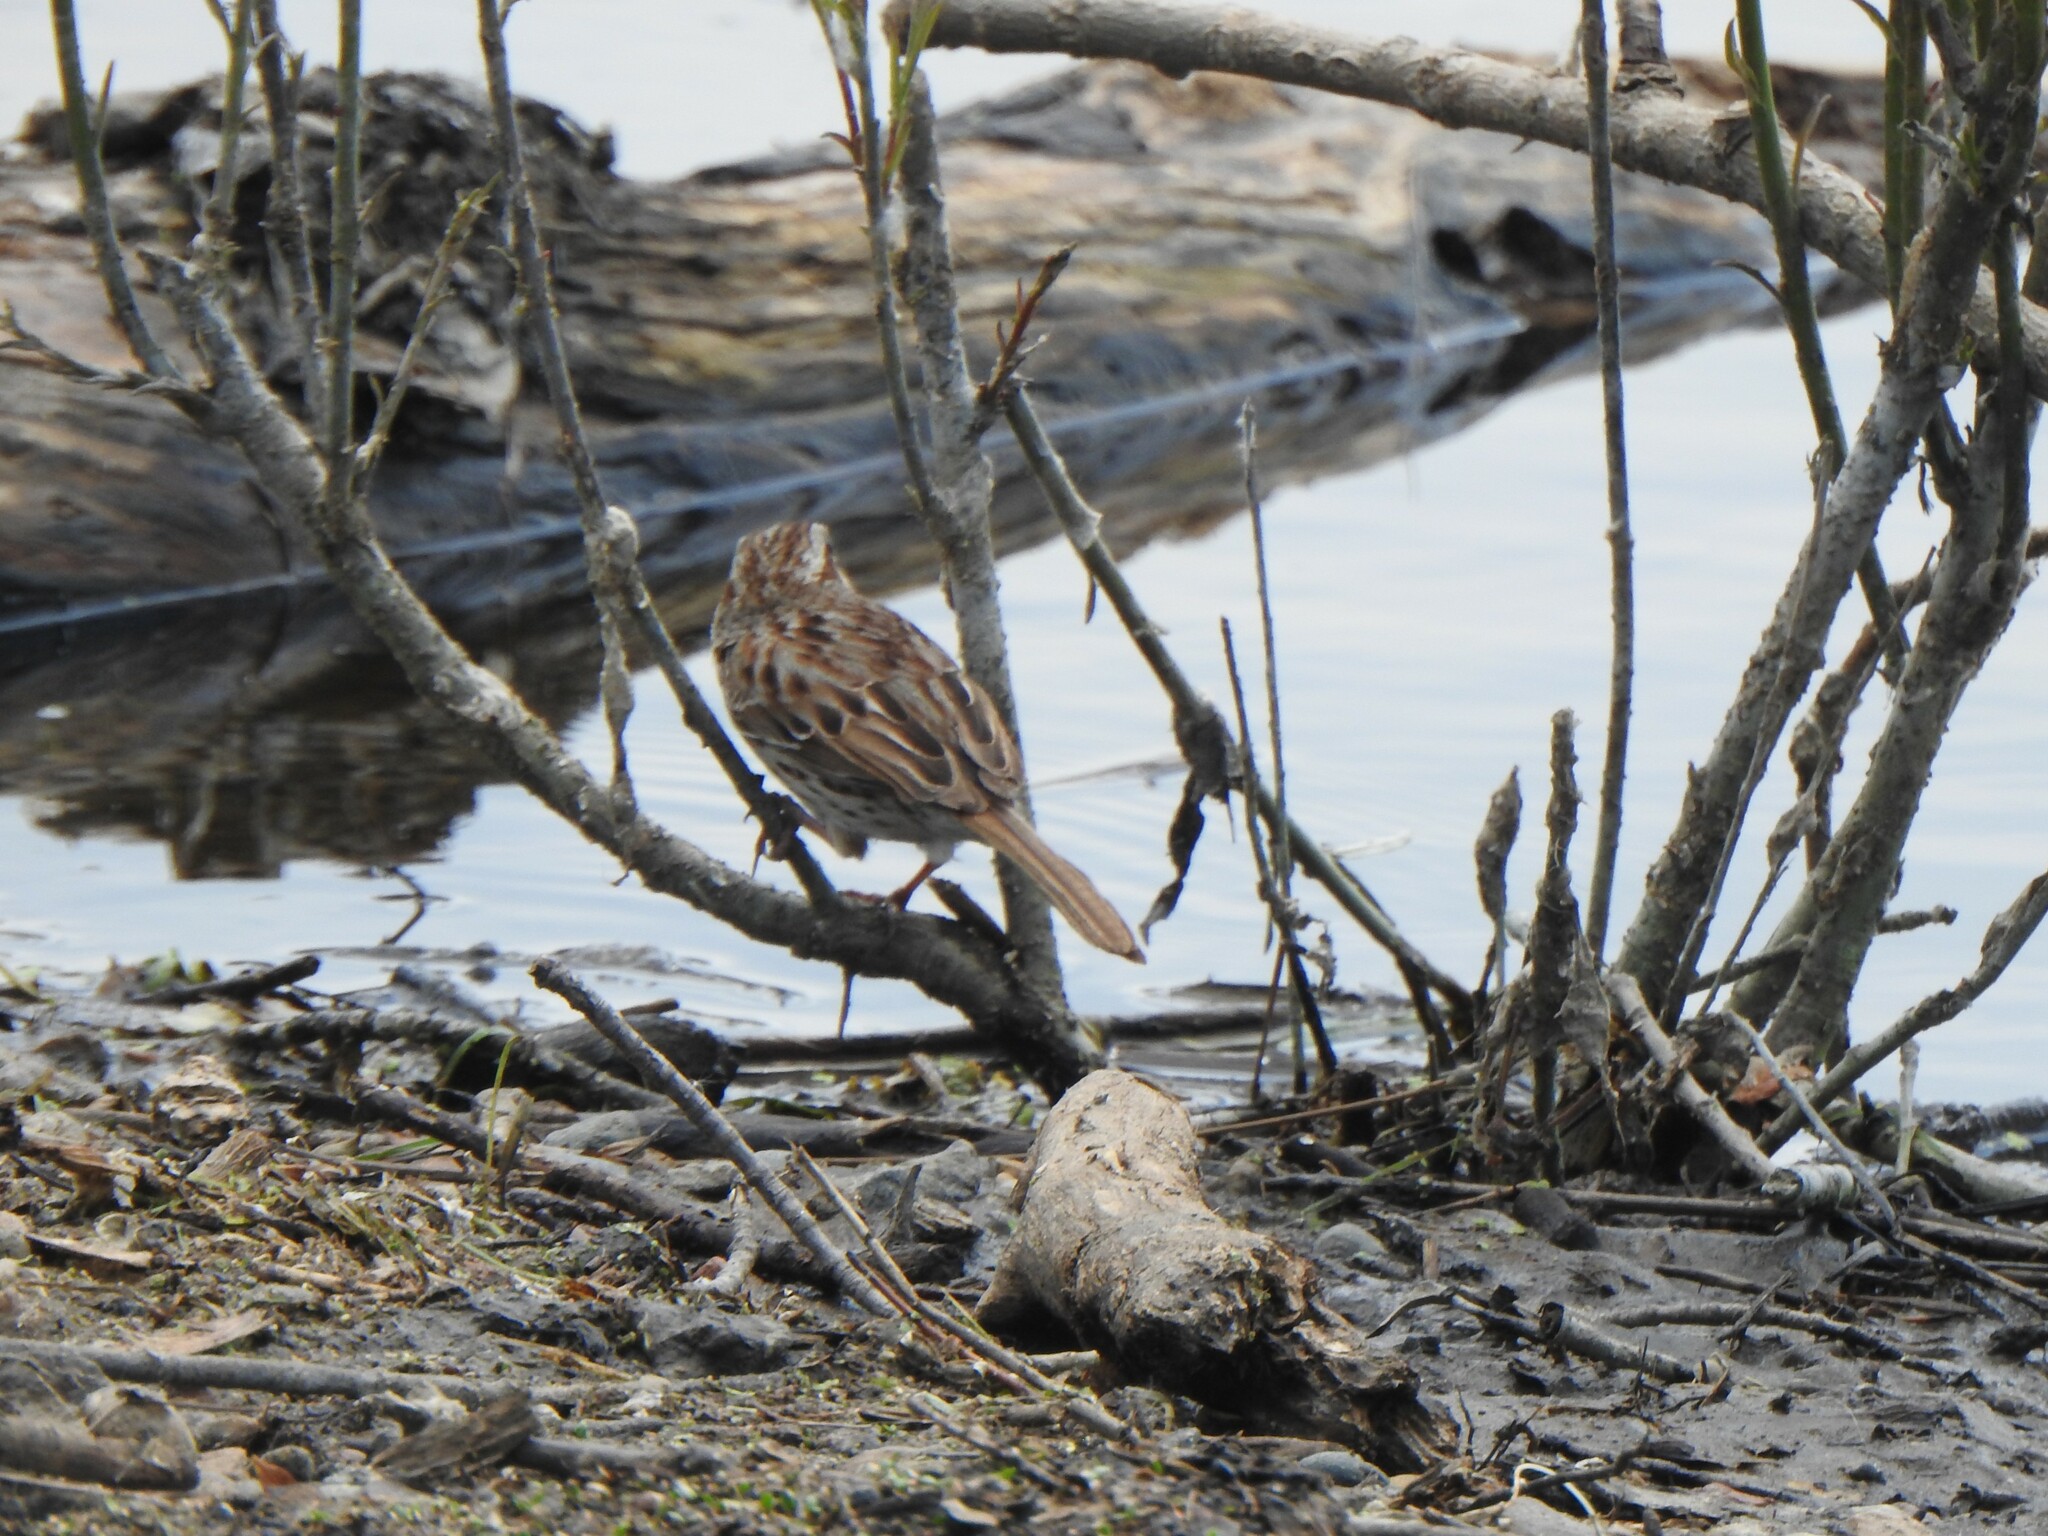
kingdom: Animalia
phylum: Chordata
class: Aves
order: Passeriformes
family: Passerellidae
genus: Melospiza
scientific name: Melospiza melodia
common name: Song sparrow
